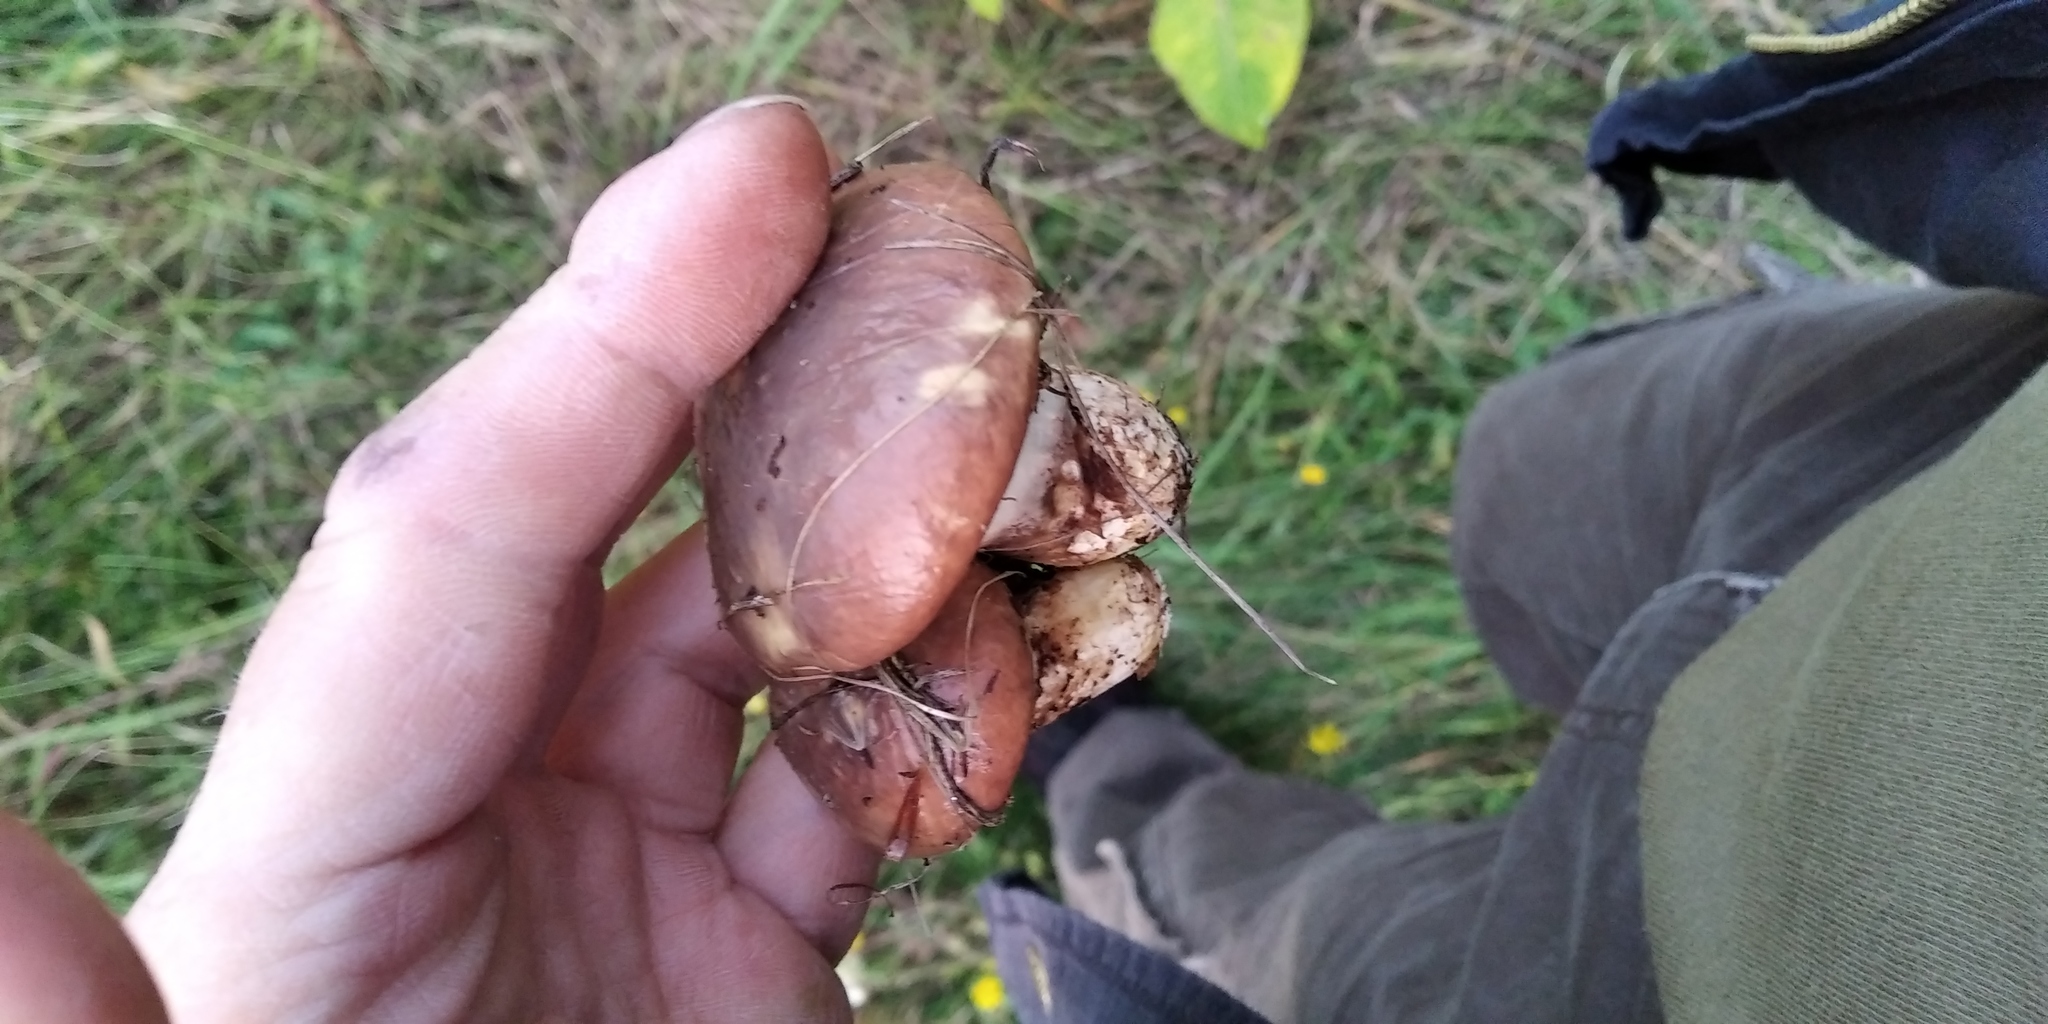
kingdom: Fungi
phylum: Basidiomycota
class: Agaricomycetes
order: Boletales
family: Suillaceae
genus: Suillus
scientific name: Suillus luteus
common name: Slippery jack
